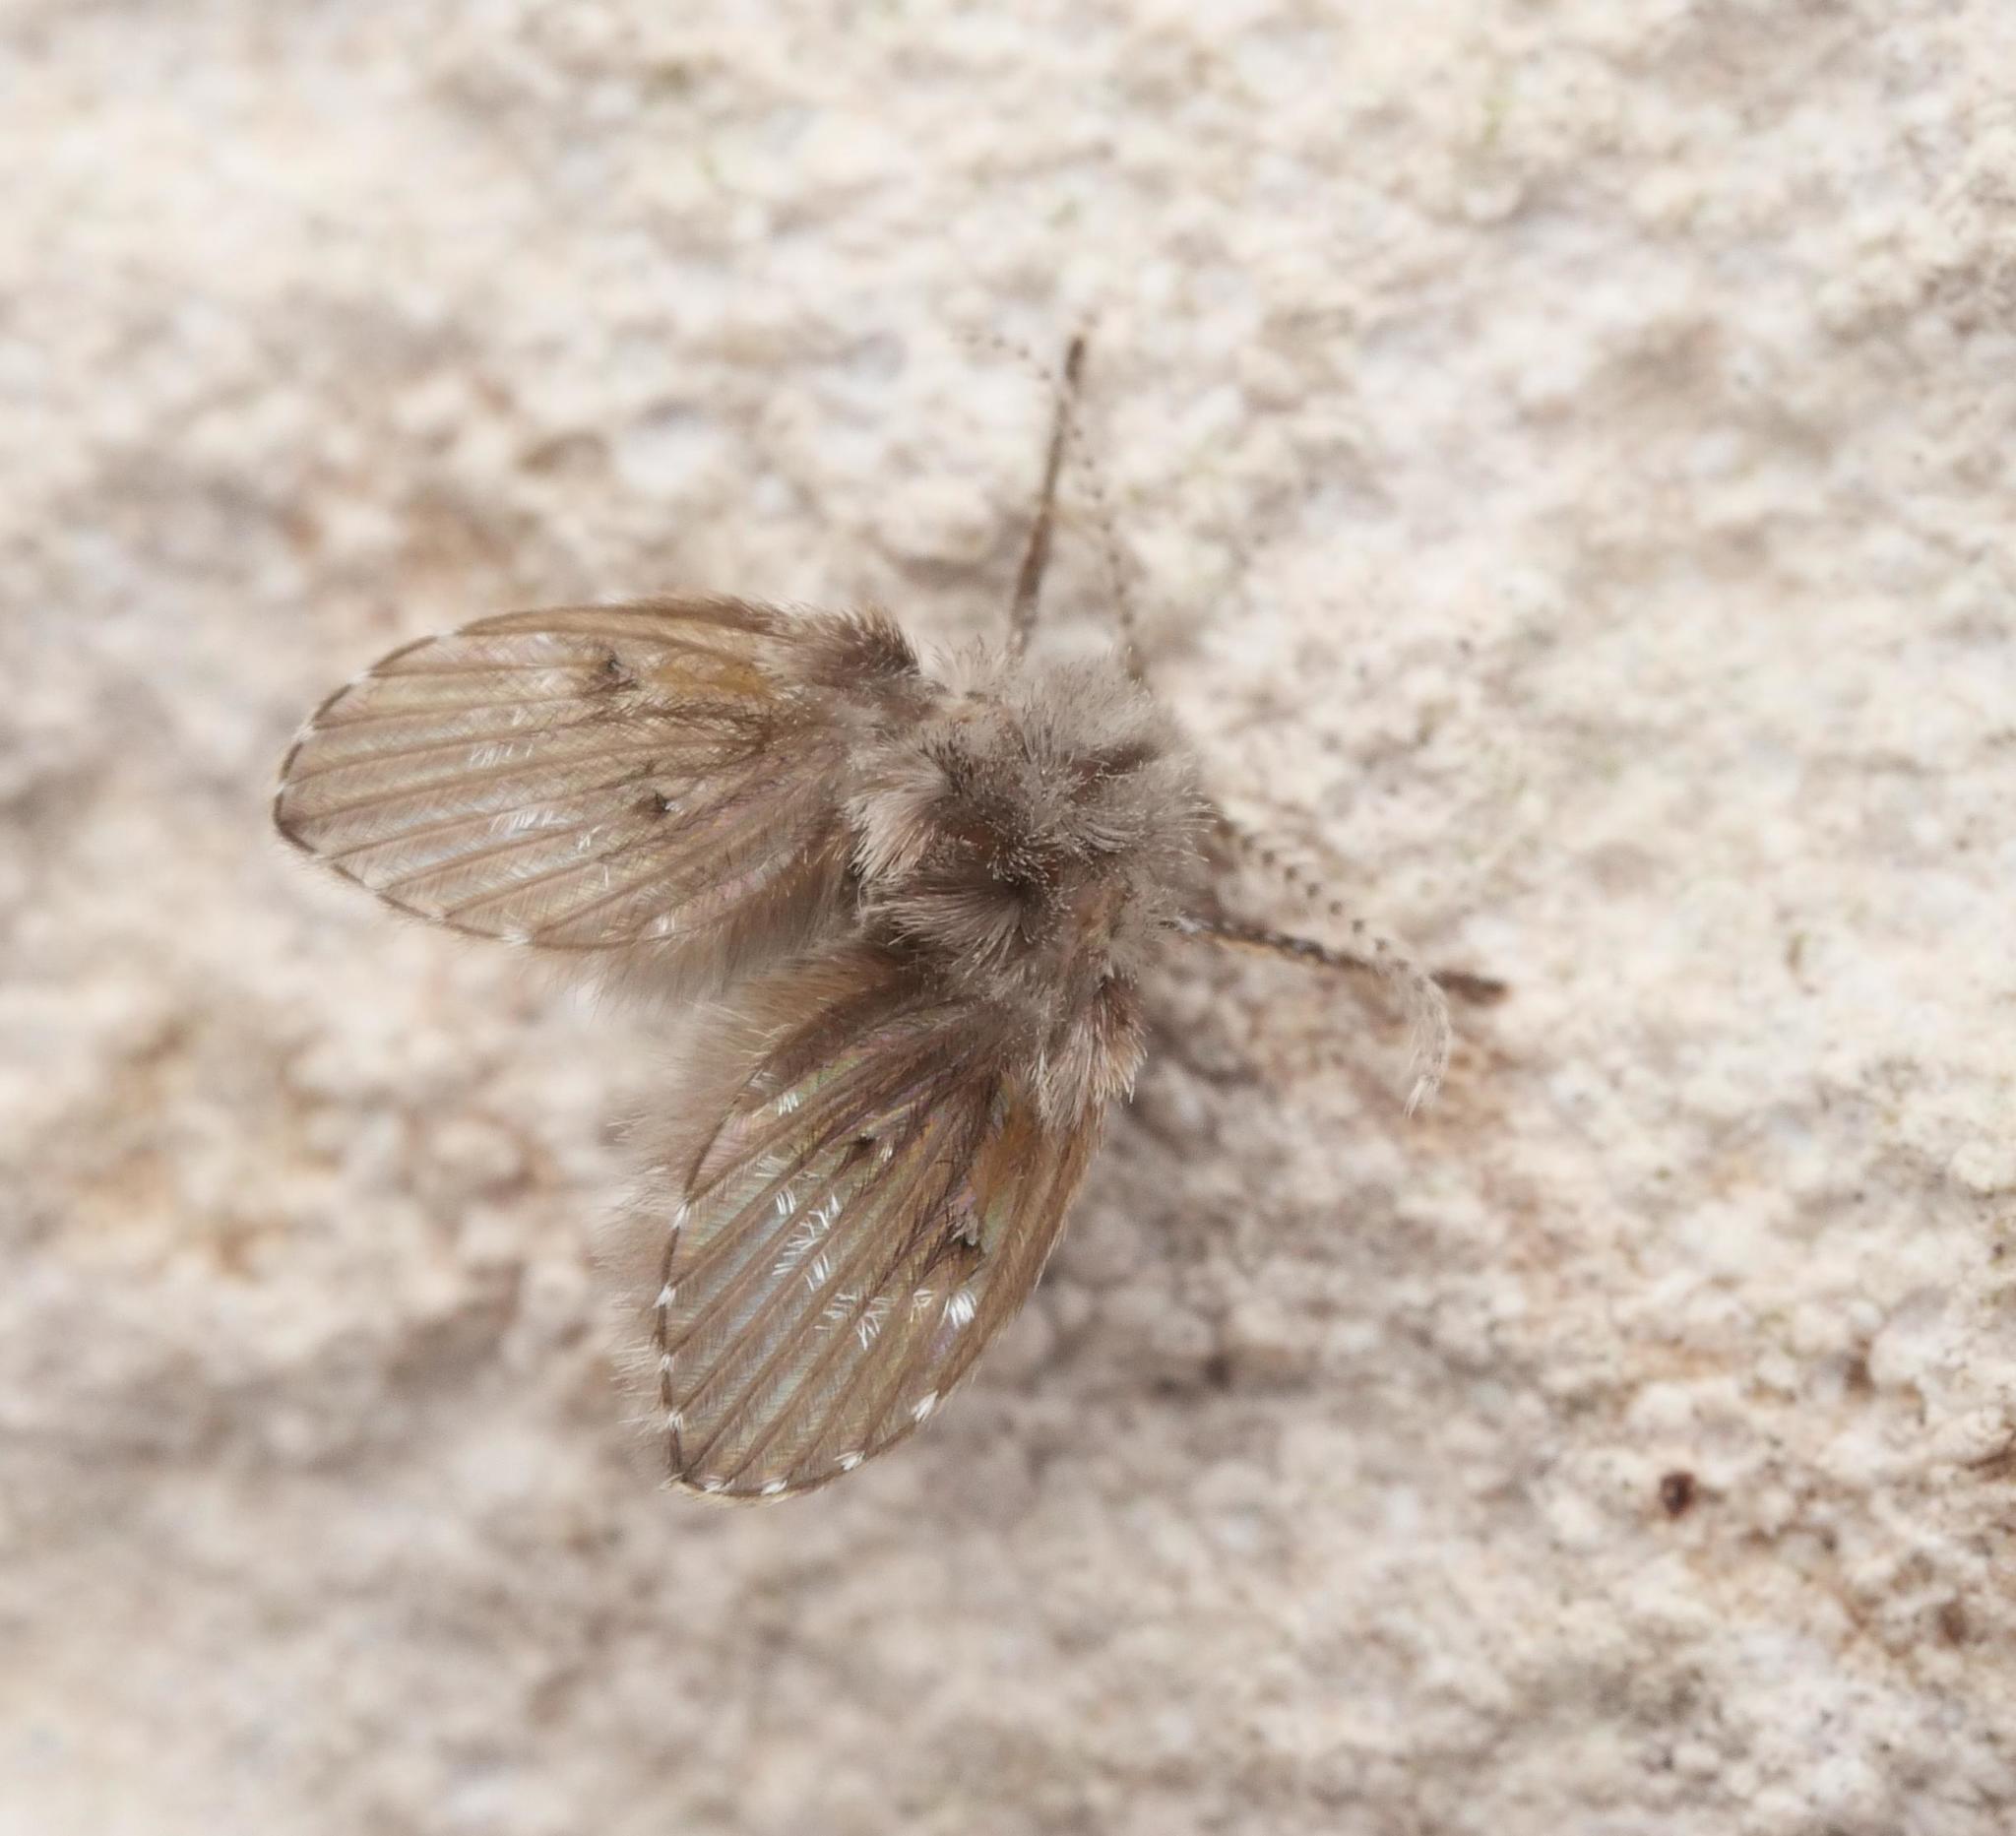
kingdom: Animalia
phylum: Arthropoda
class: Insecta
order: Diptera
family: Psychodidae
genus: Clogmia
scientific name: Clogmia albipunctatus
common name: White-spotted moth fly
